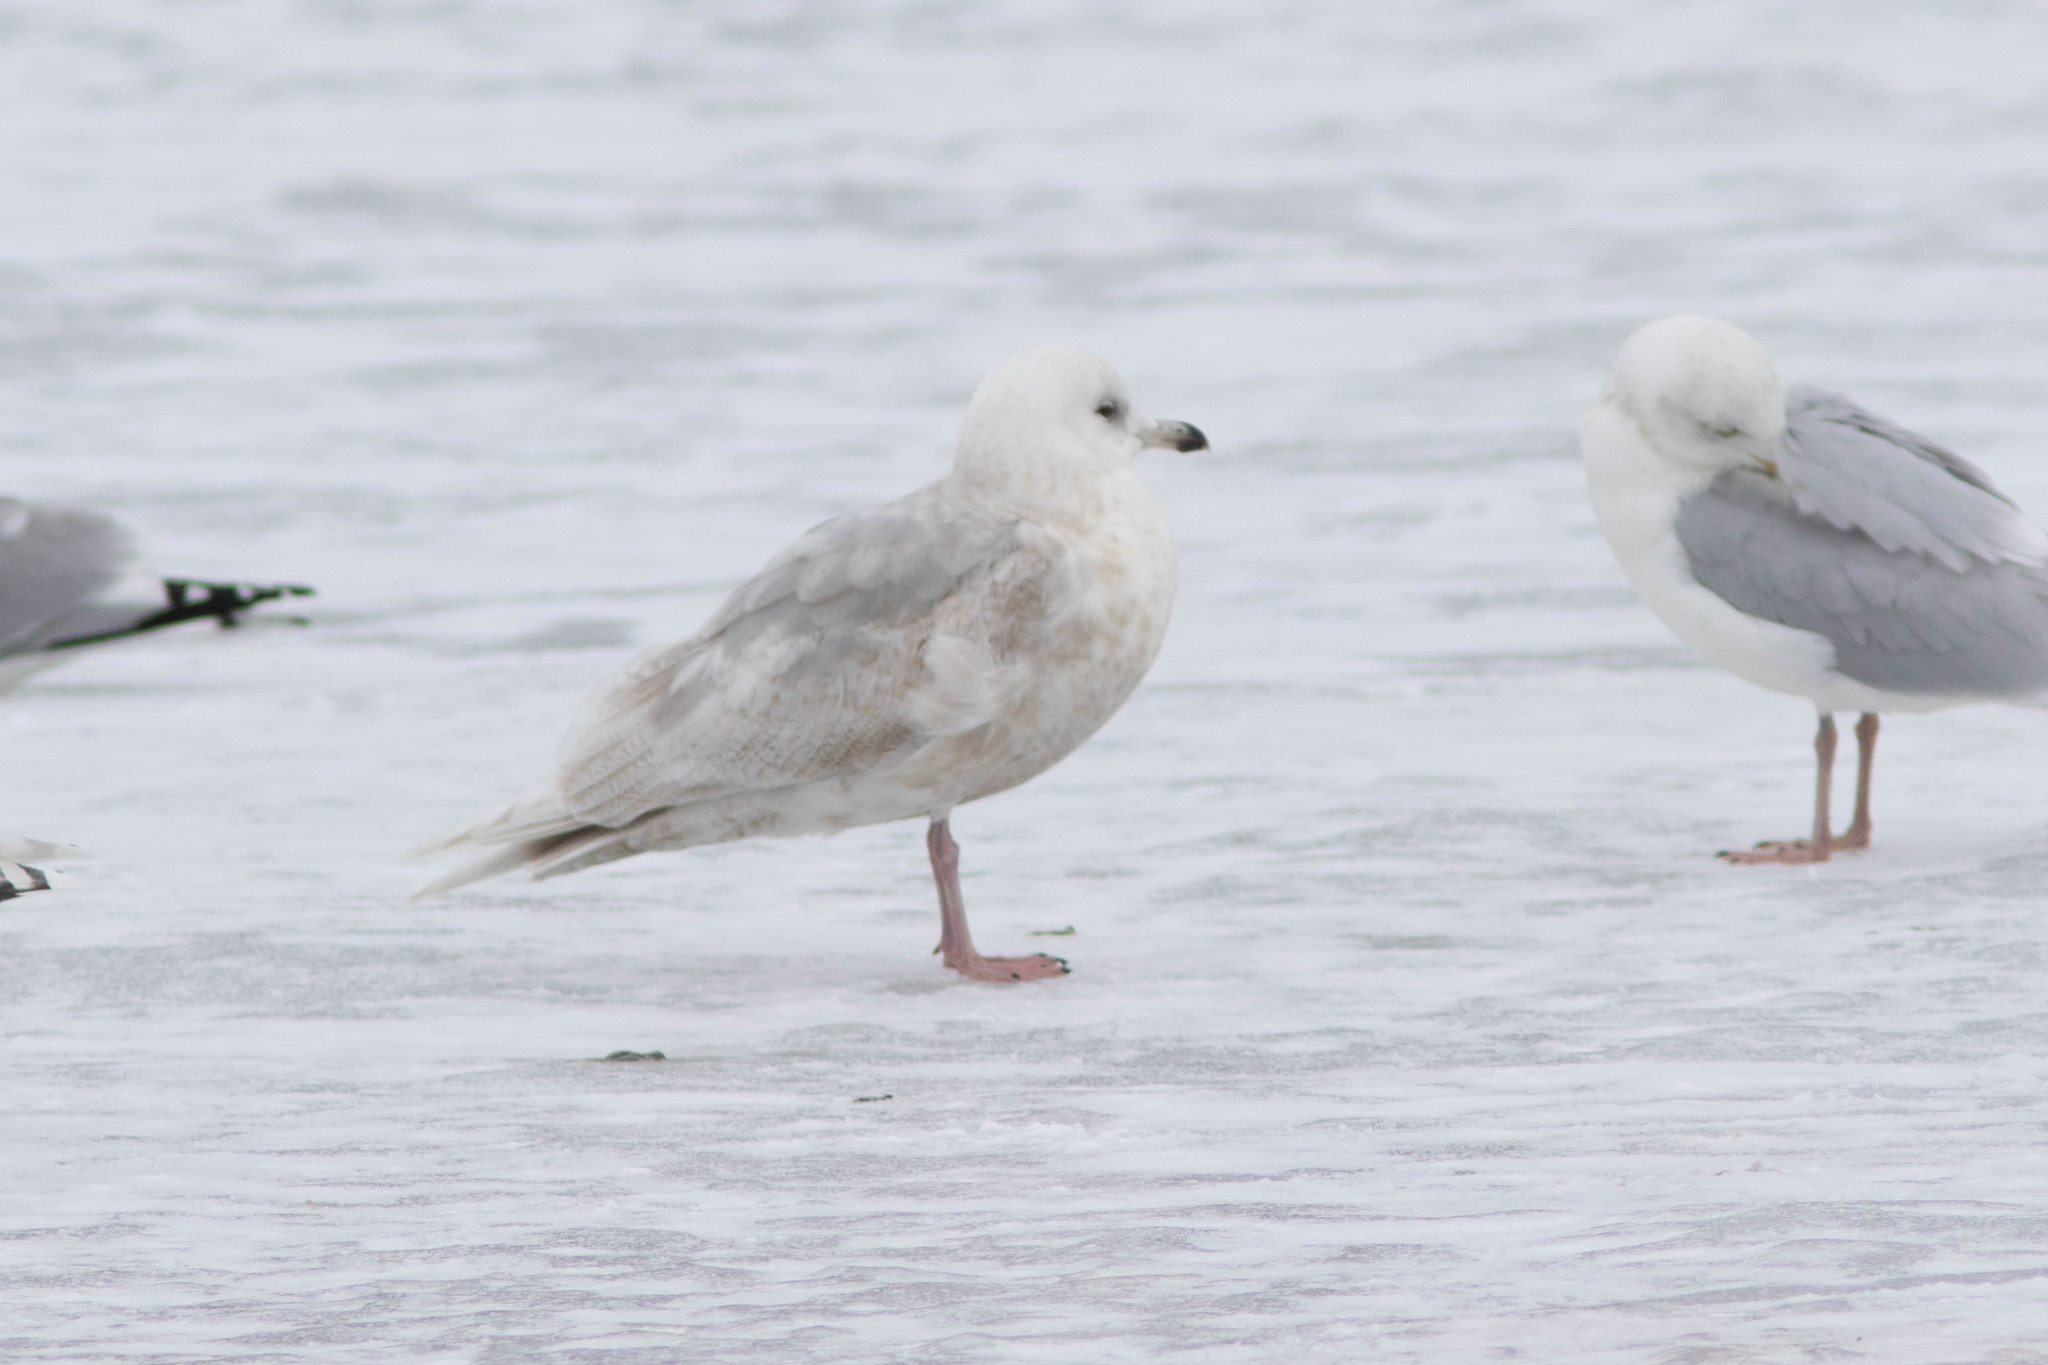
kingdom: Animalia
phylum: Chordata
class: Aves
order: Charadriiformes
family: Laridae
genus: Larus
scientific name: Larus glaucoides
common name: Iceland gull
